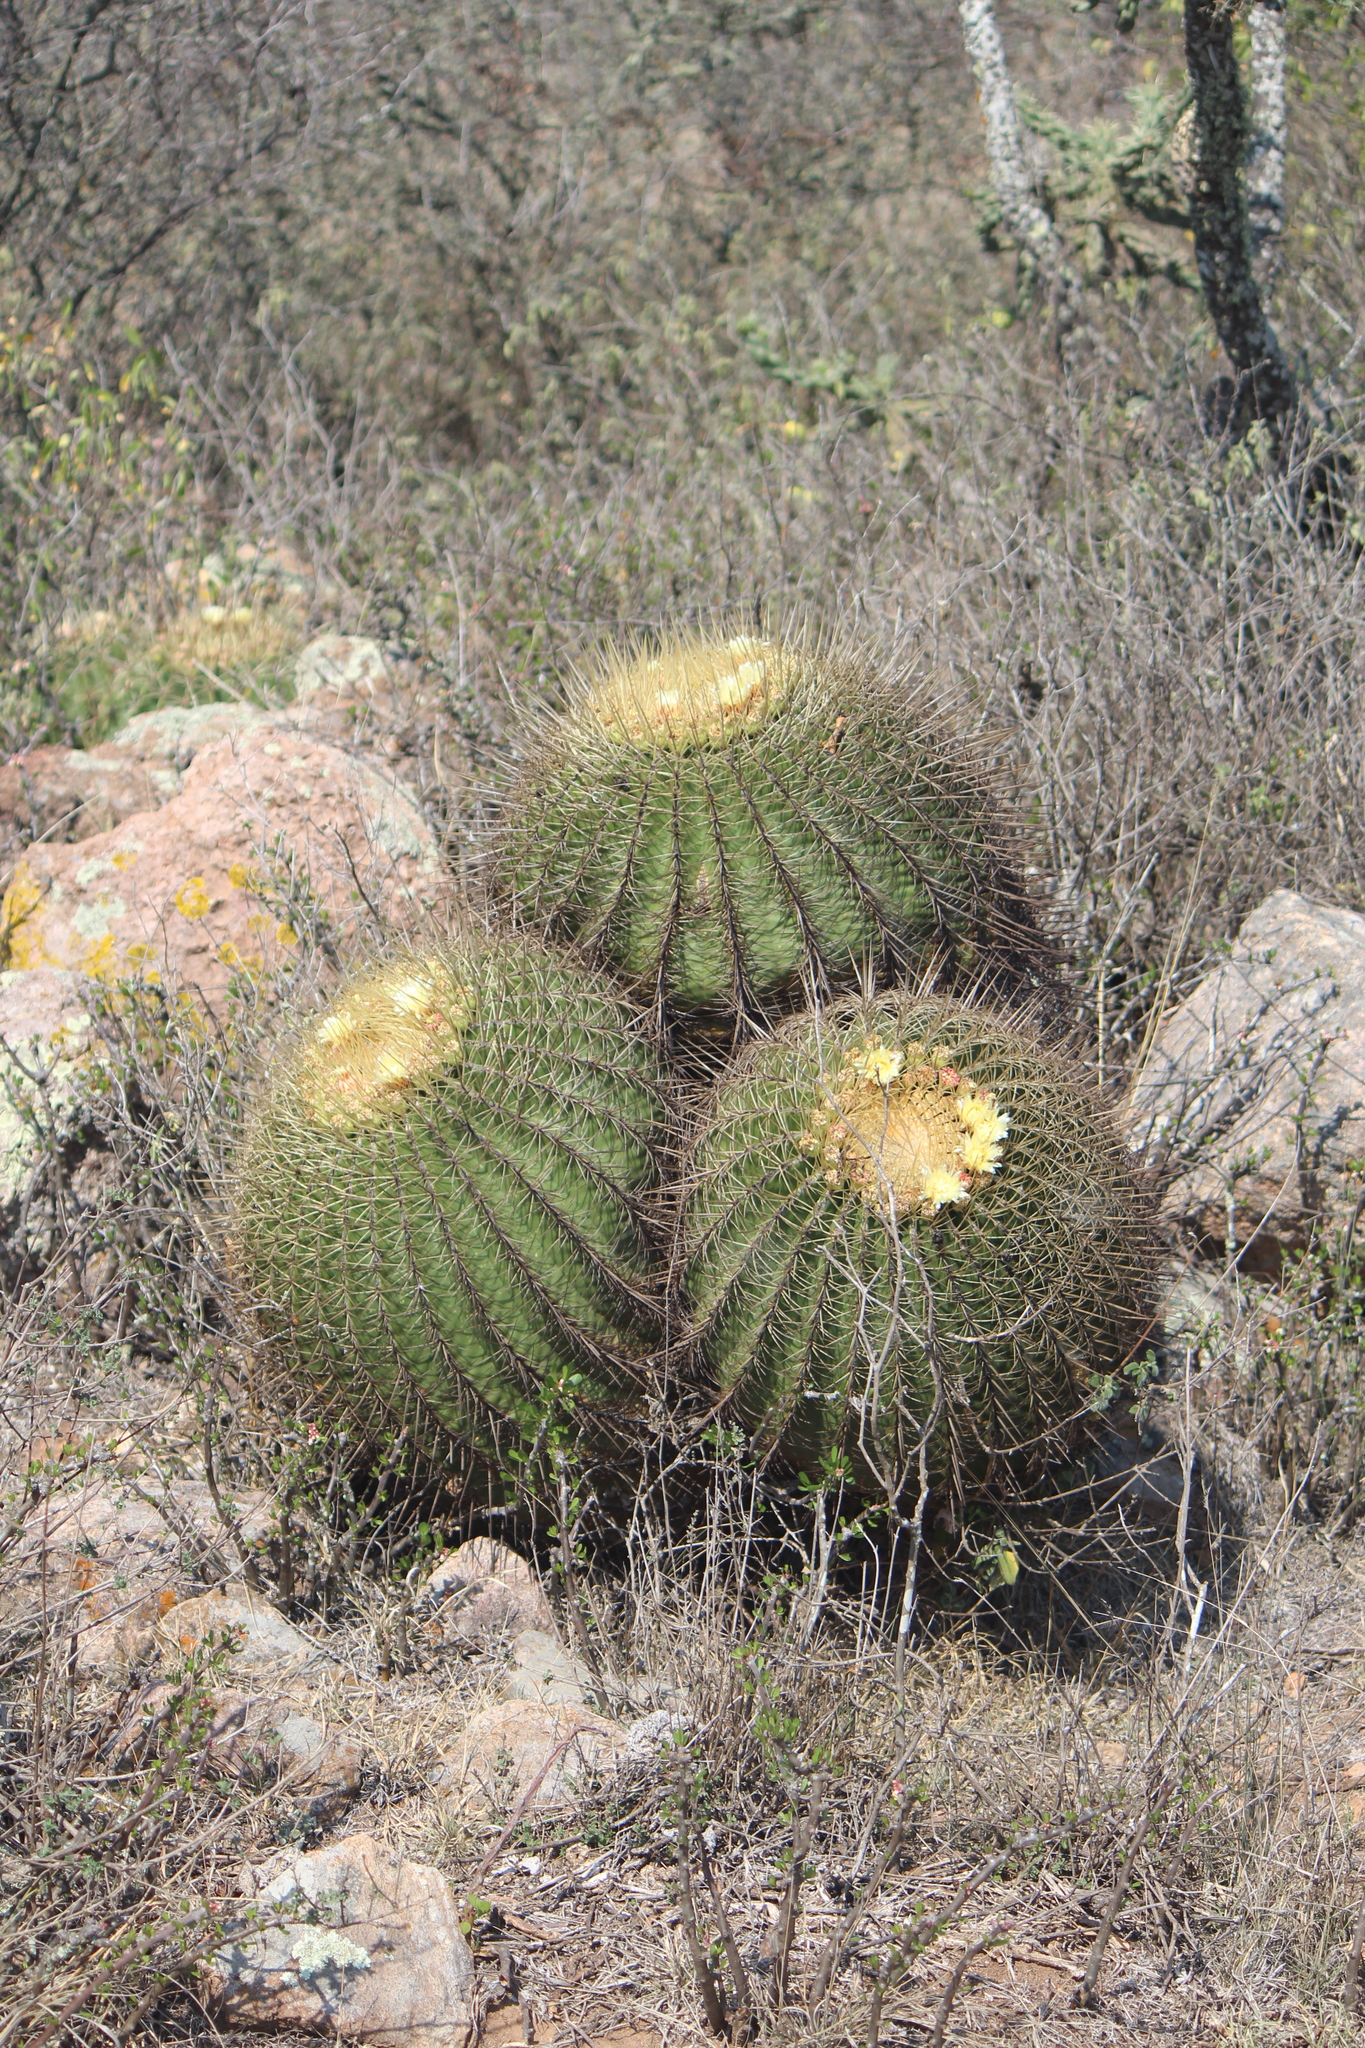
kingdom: Plantae
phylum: Tracheophyta
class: Magnoliopsida
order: Caryophyllales
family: Cactaceae
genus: Bisnaga
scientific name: Bisnaga histrix
